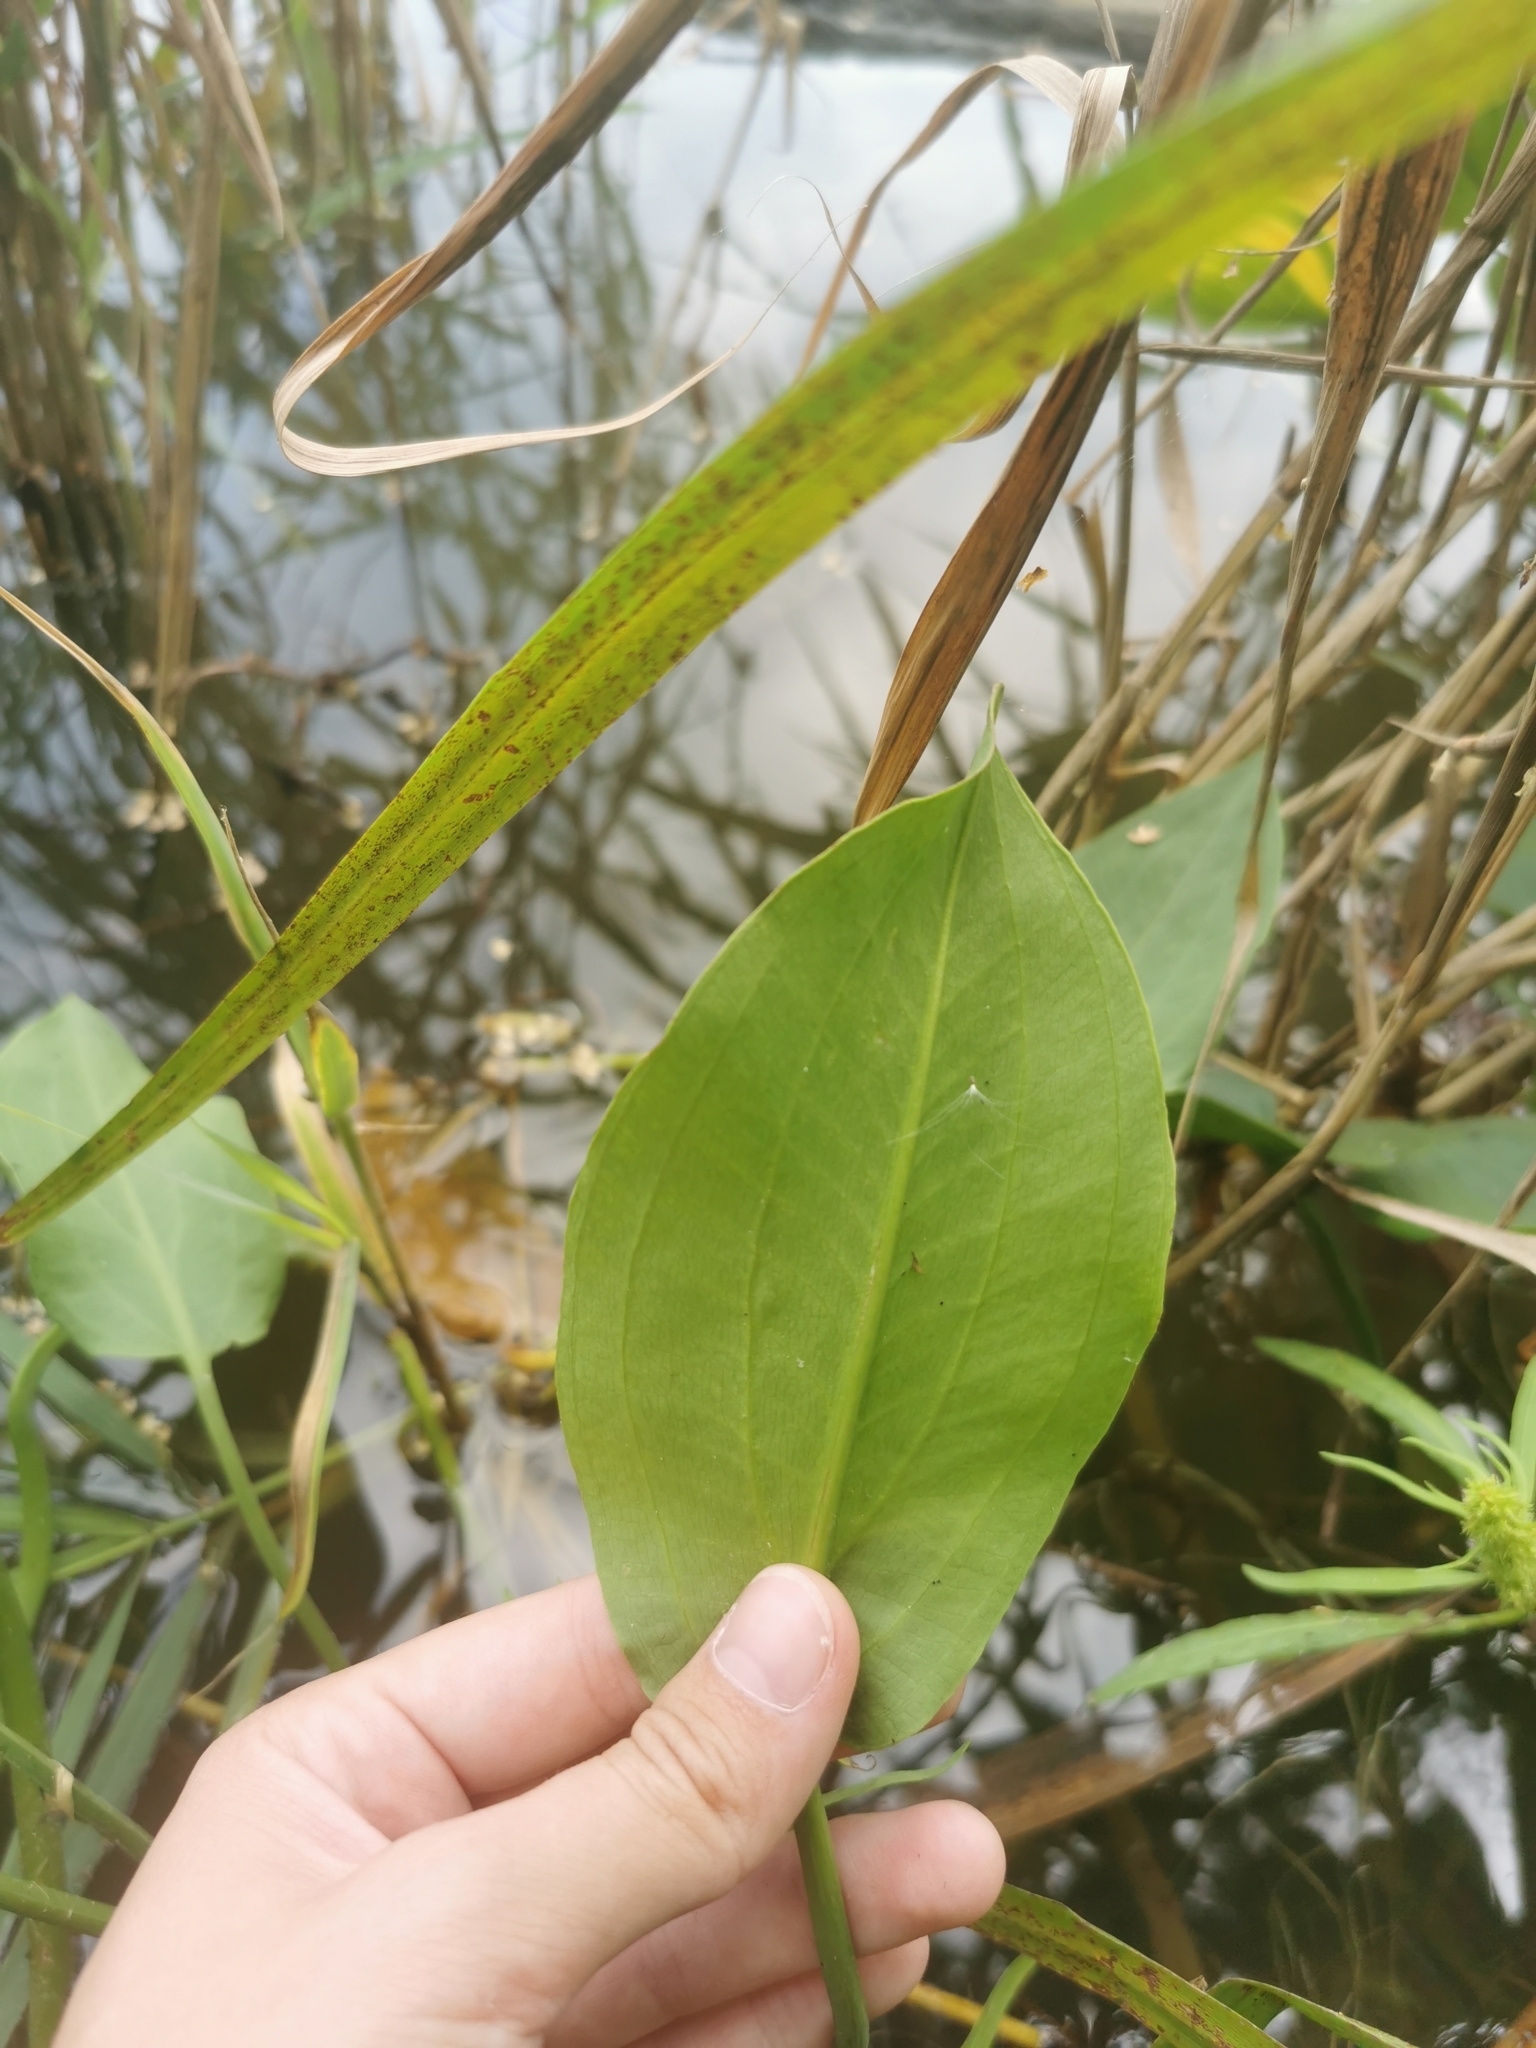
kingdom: Plantae
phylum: Tracheophyta
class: Liliopsida
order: Alismatales
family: Alismataceae
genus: Alisma
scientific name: Alisma plantago-aquatica
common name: Water-plantain
